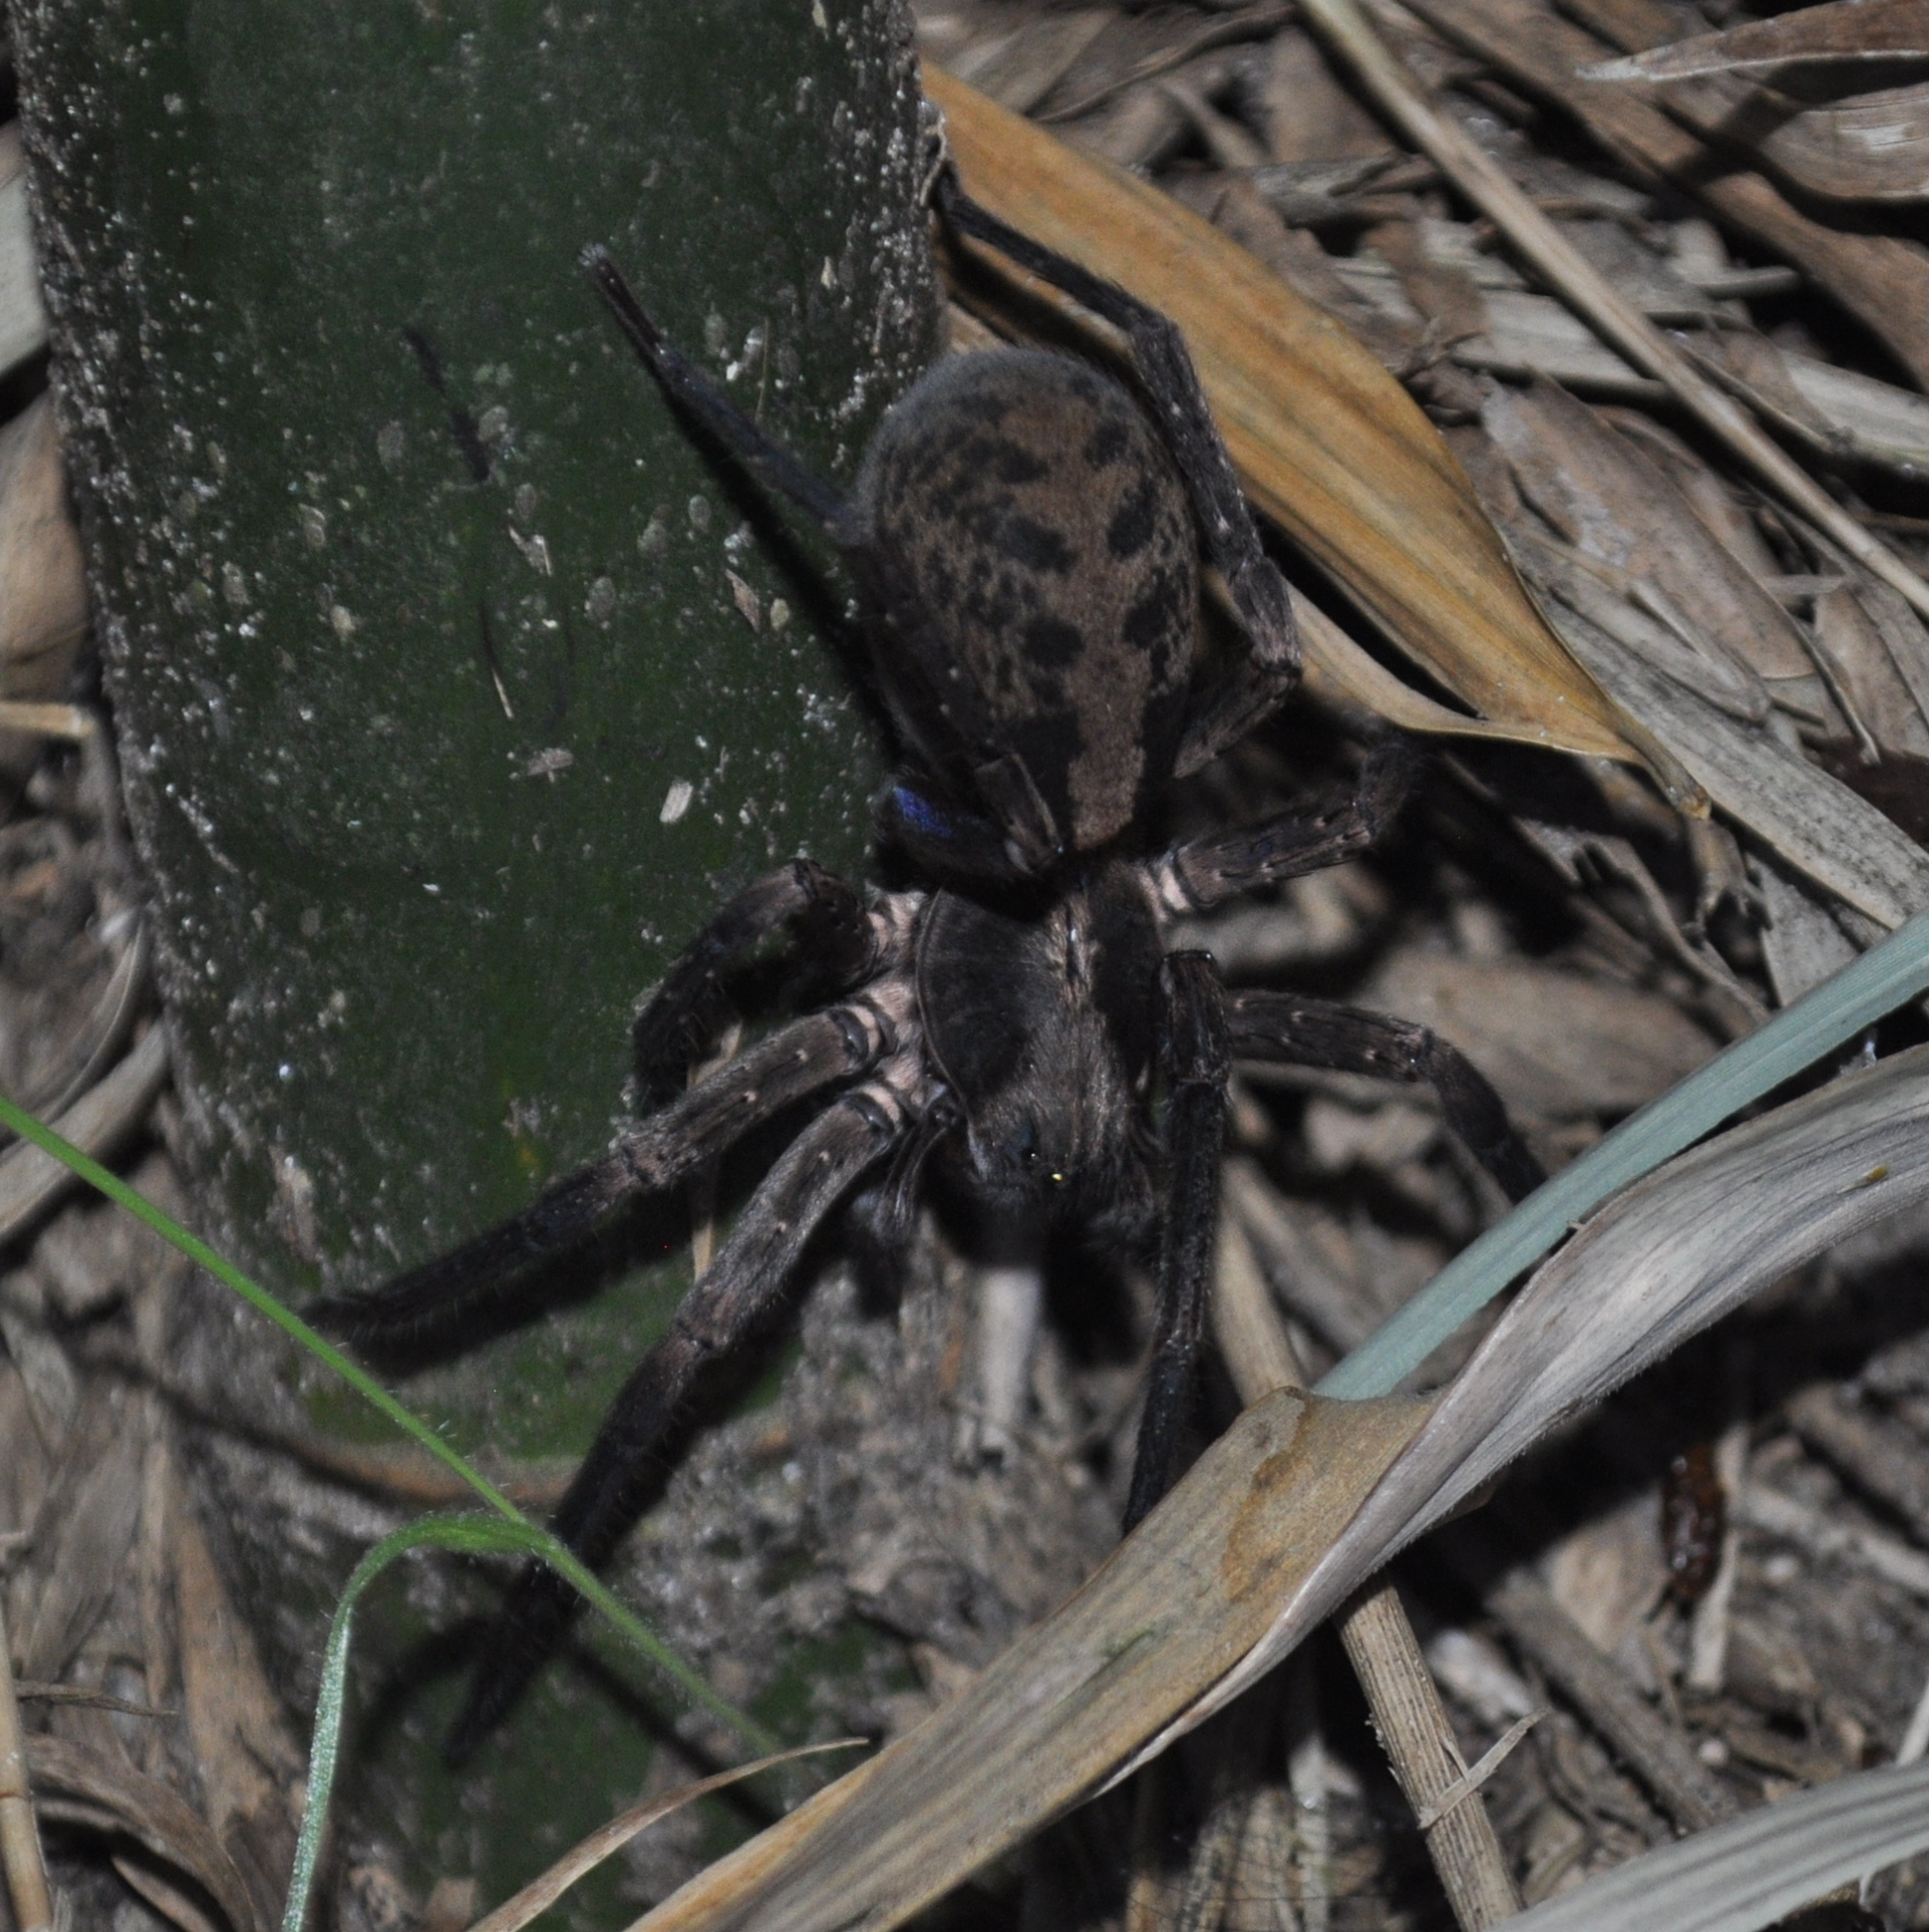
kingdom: Animalia
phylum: Arthropoda
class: Arachnida
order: Araneae
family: Ctenidae
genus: Guasuctenus
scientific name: Guasuctenus longipes
